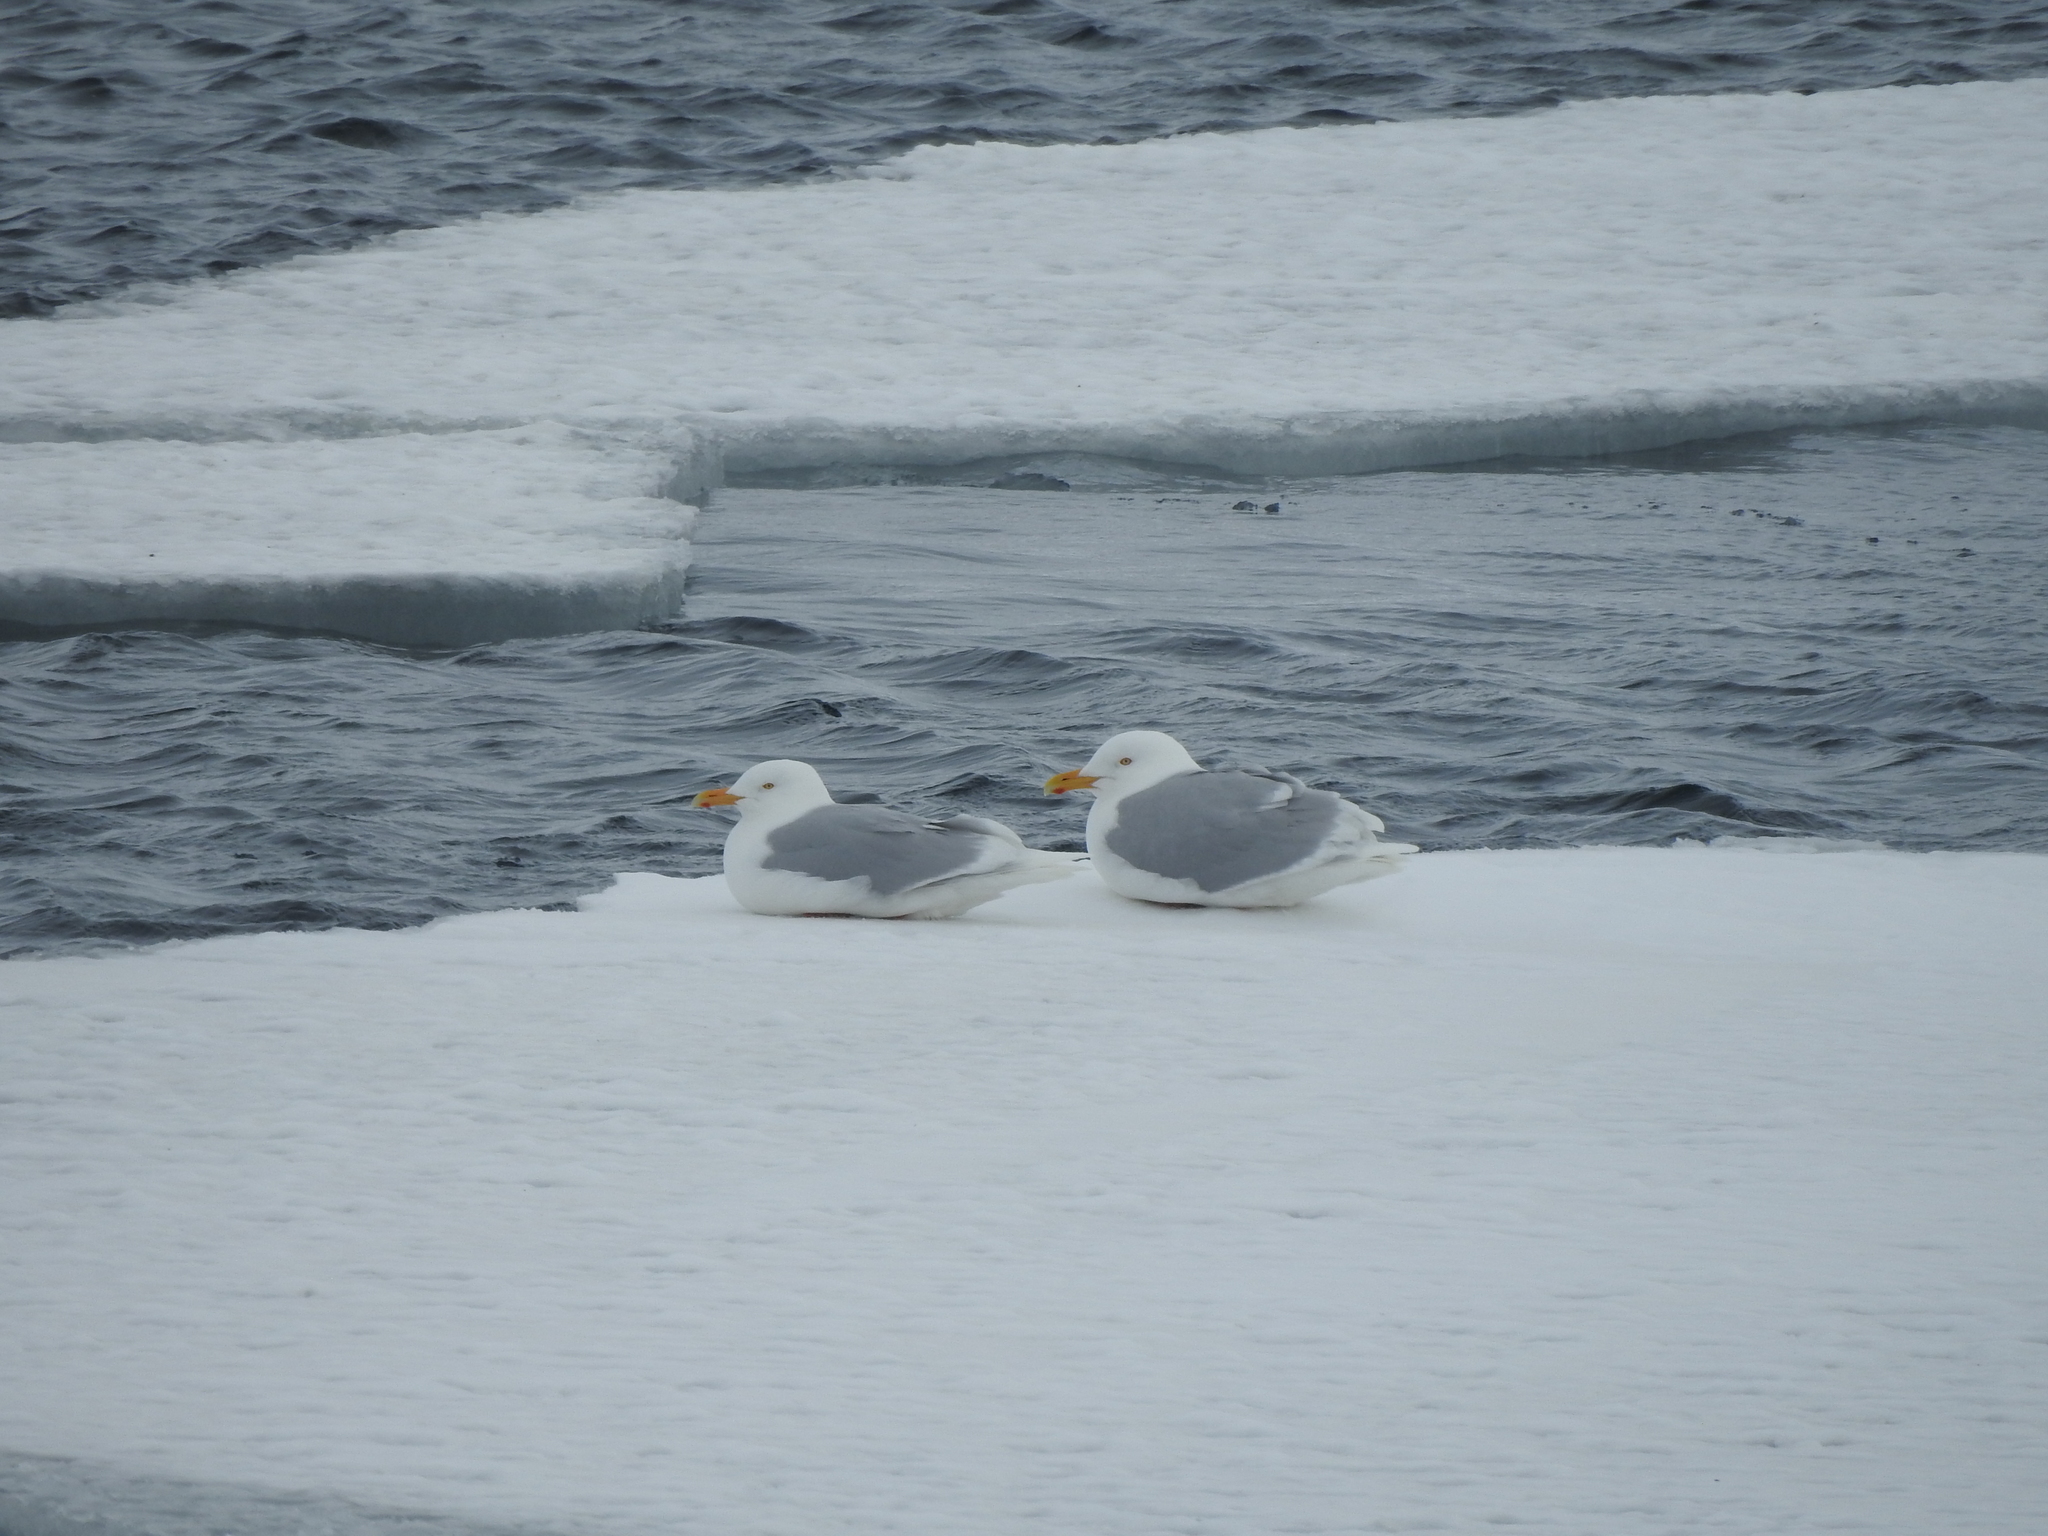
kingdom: Animalia
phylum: Chordata
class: Aves
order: Charadriiformes
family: Laridae
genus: Larus
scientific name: Larus hyperboreus
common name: Glaucous gull
